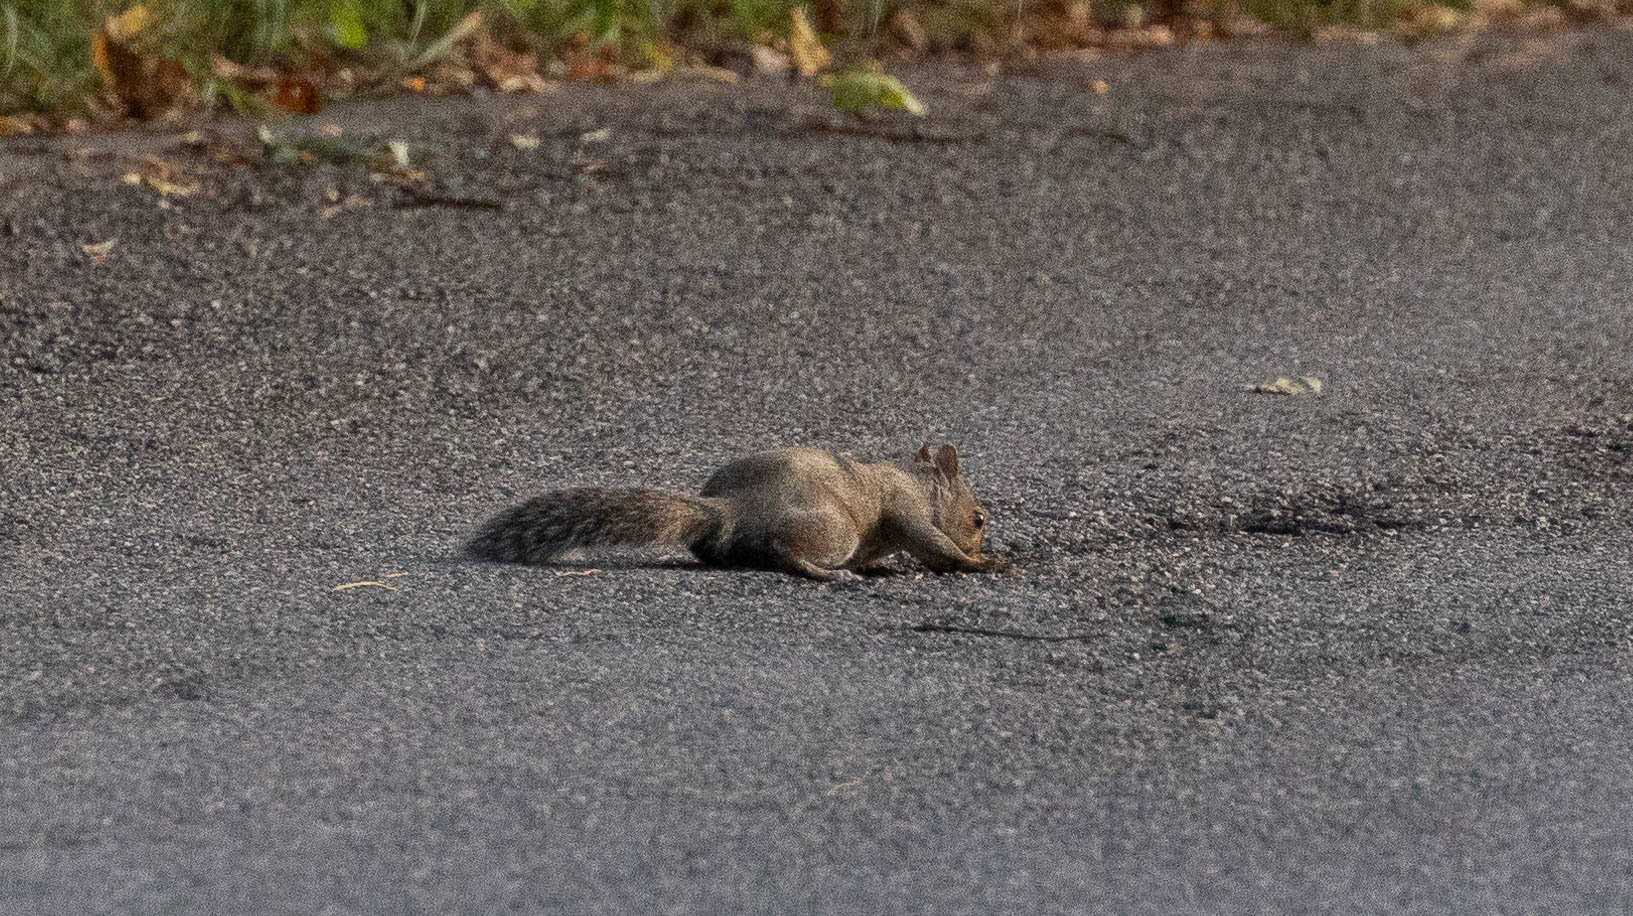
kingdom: Animalia
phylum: Chordata
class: Mammalia
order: Rodentia
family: Sciuridae
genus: Sciurus
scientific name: Sciurus carolinensis
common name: Eastern gray squirrel
